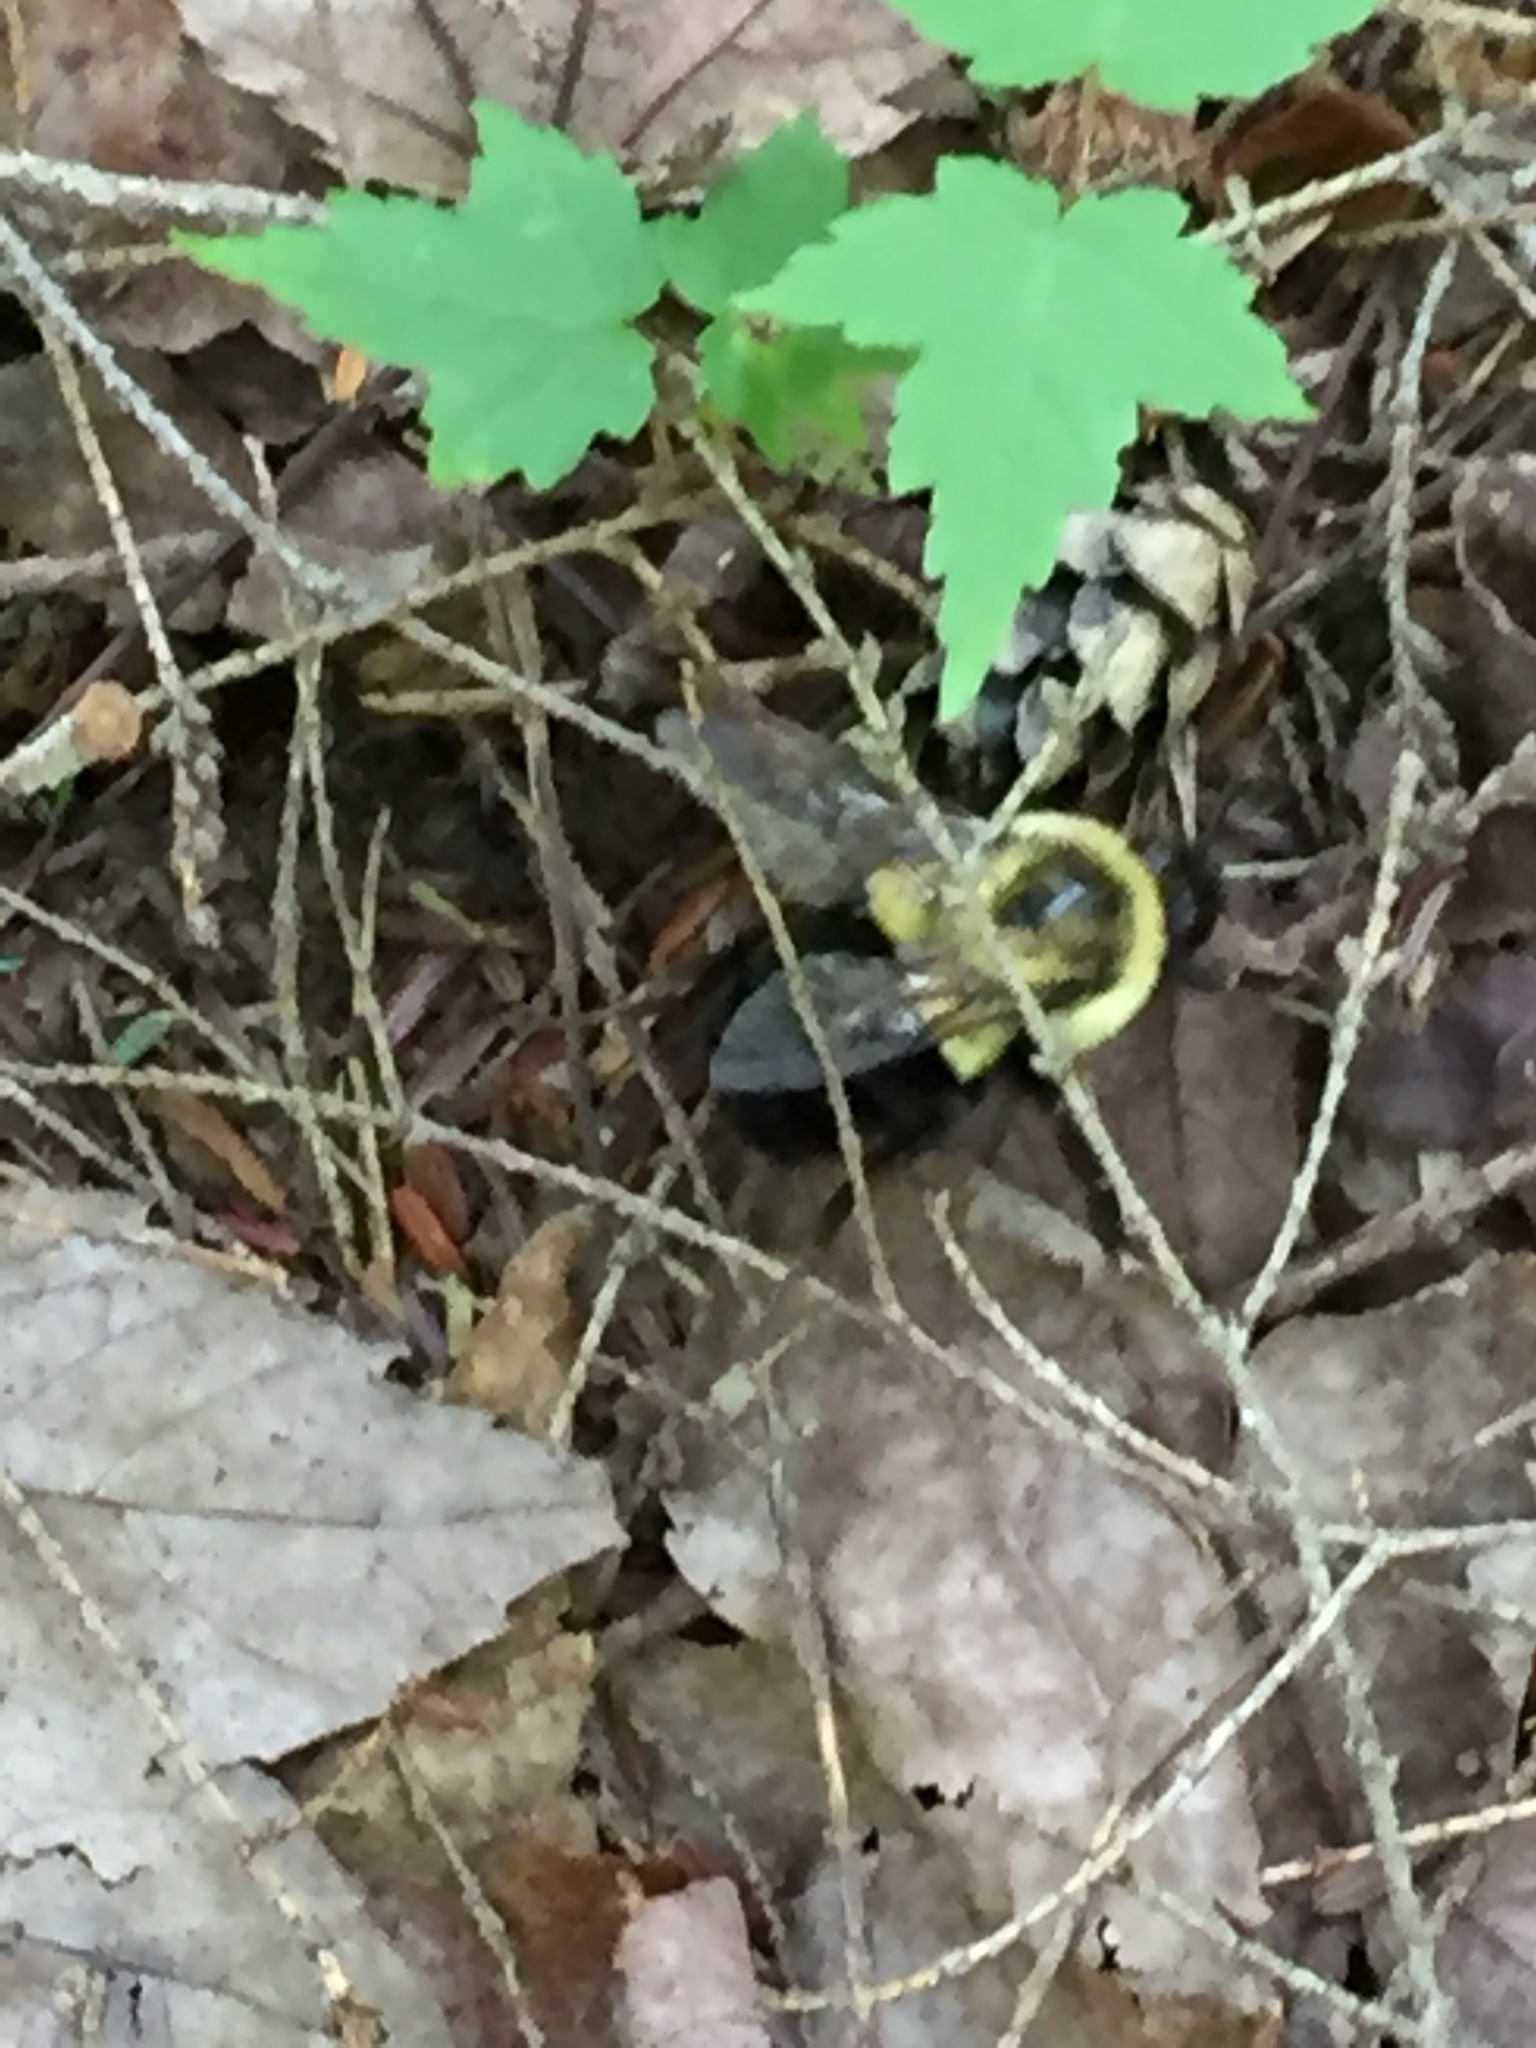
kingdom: Animalia
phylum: Arthropoda
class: Insecta
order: Hymenoptera
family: Apidae
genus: Bombus
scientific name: Bombus impatiens
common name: Common eastern bumble bee
